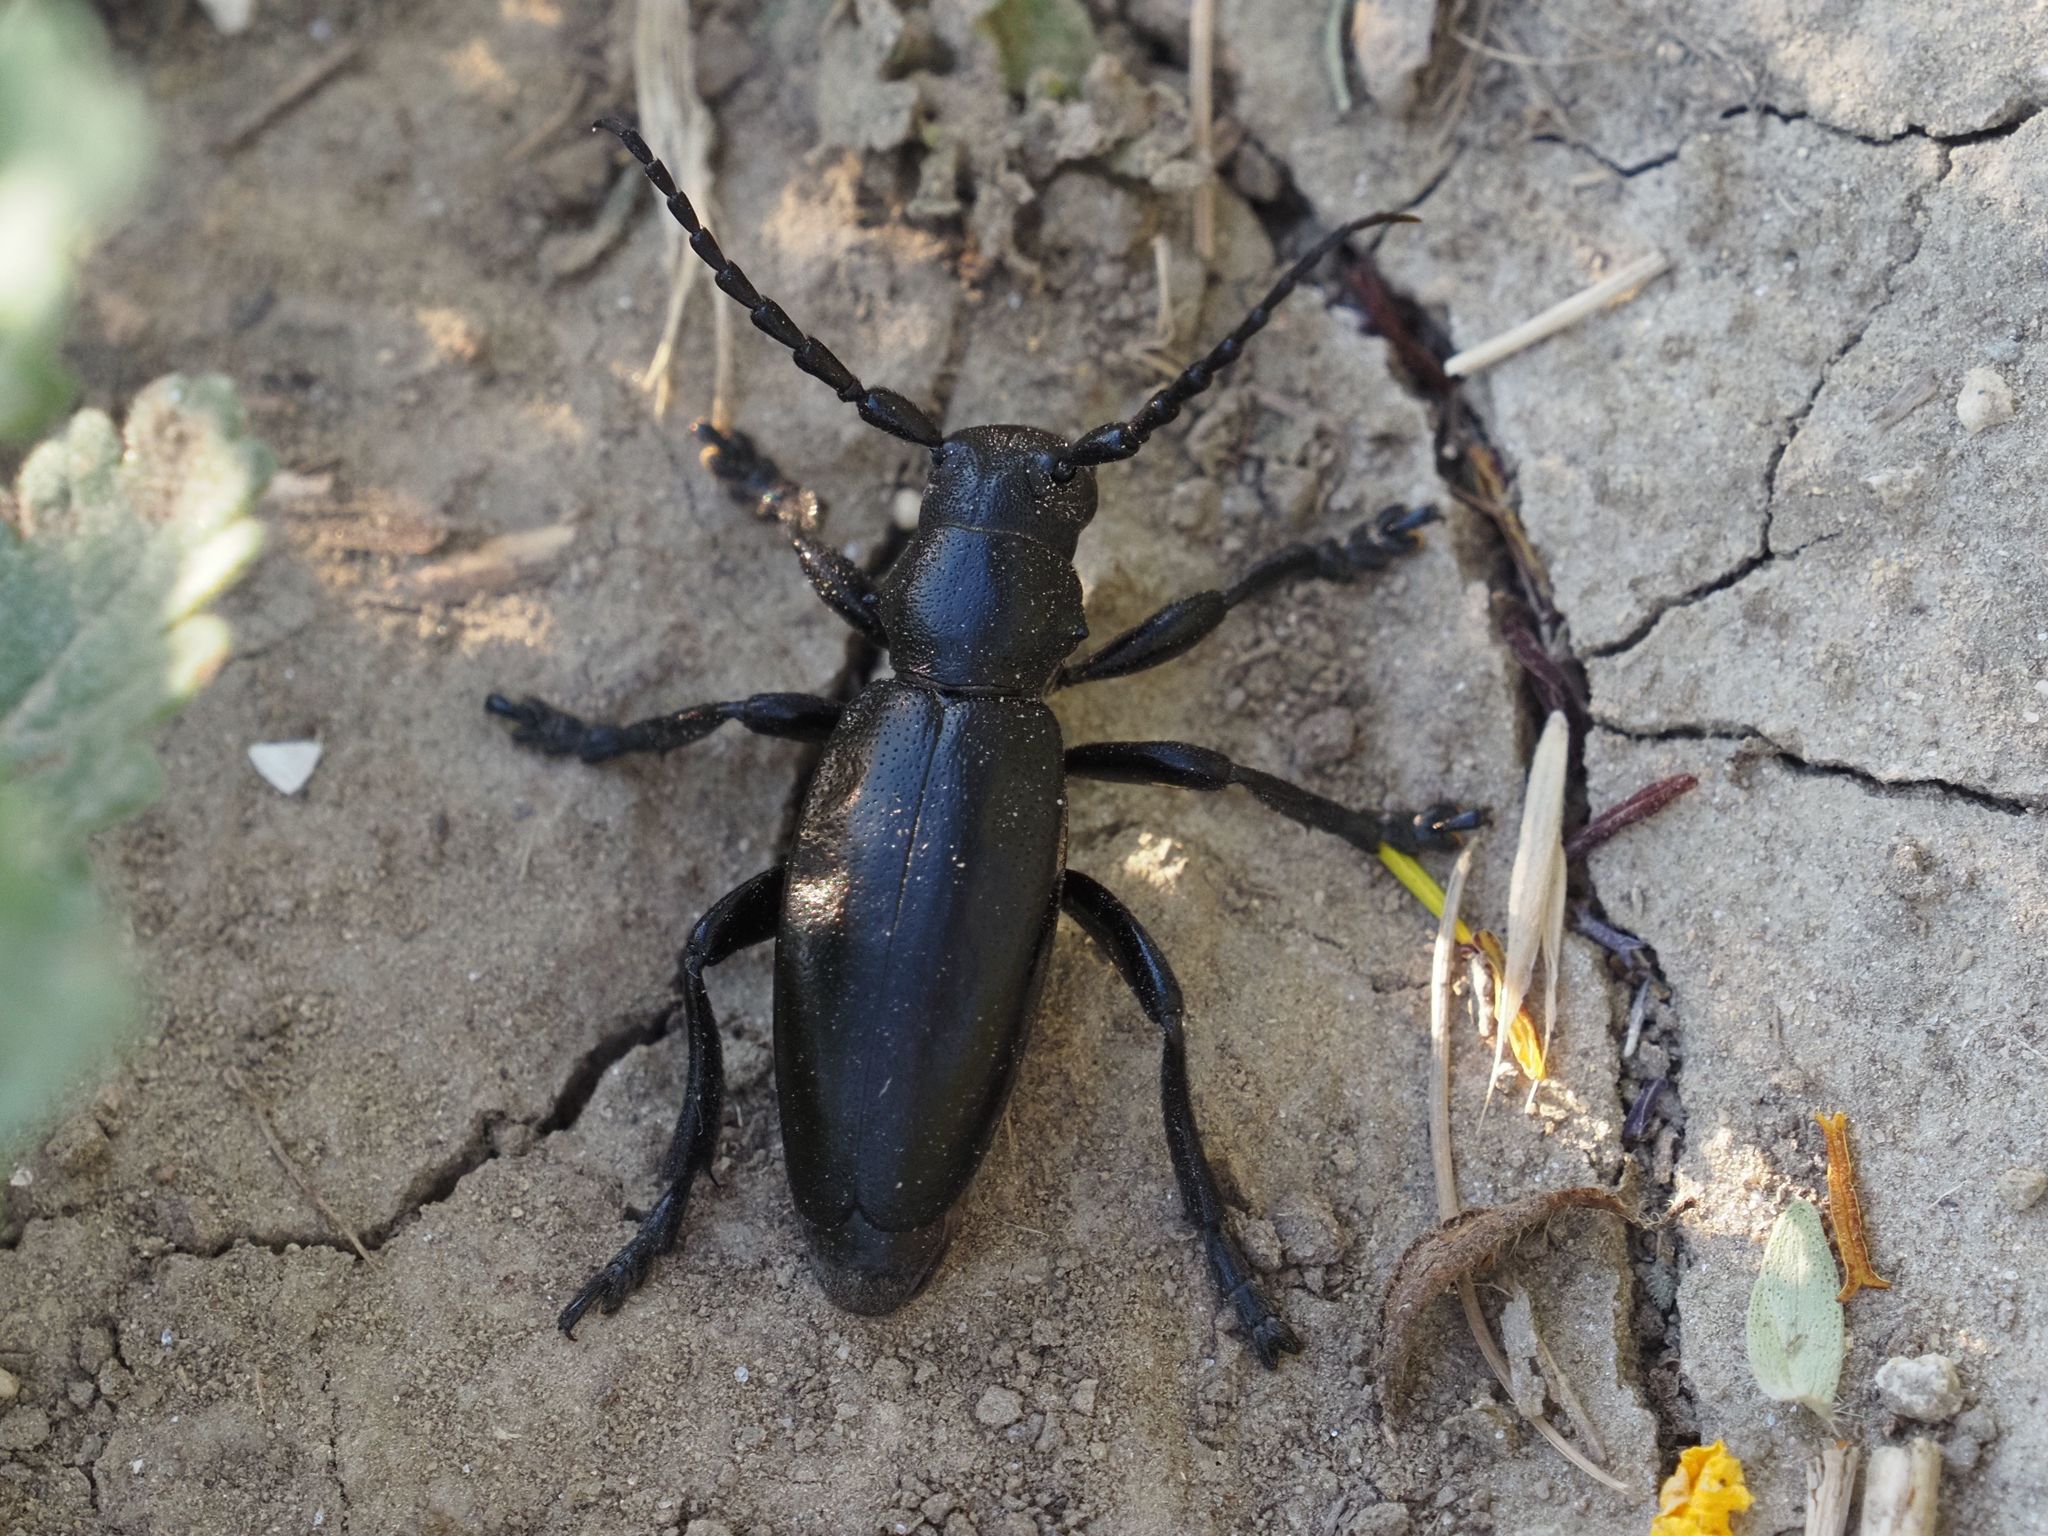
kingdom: Animalia
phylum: Arthropoda
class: Insecta
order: Coleoptera
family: Cerambycidae
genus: Dorcadion
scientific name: Dorcadion aethiops
